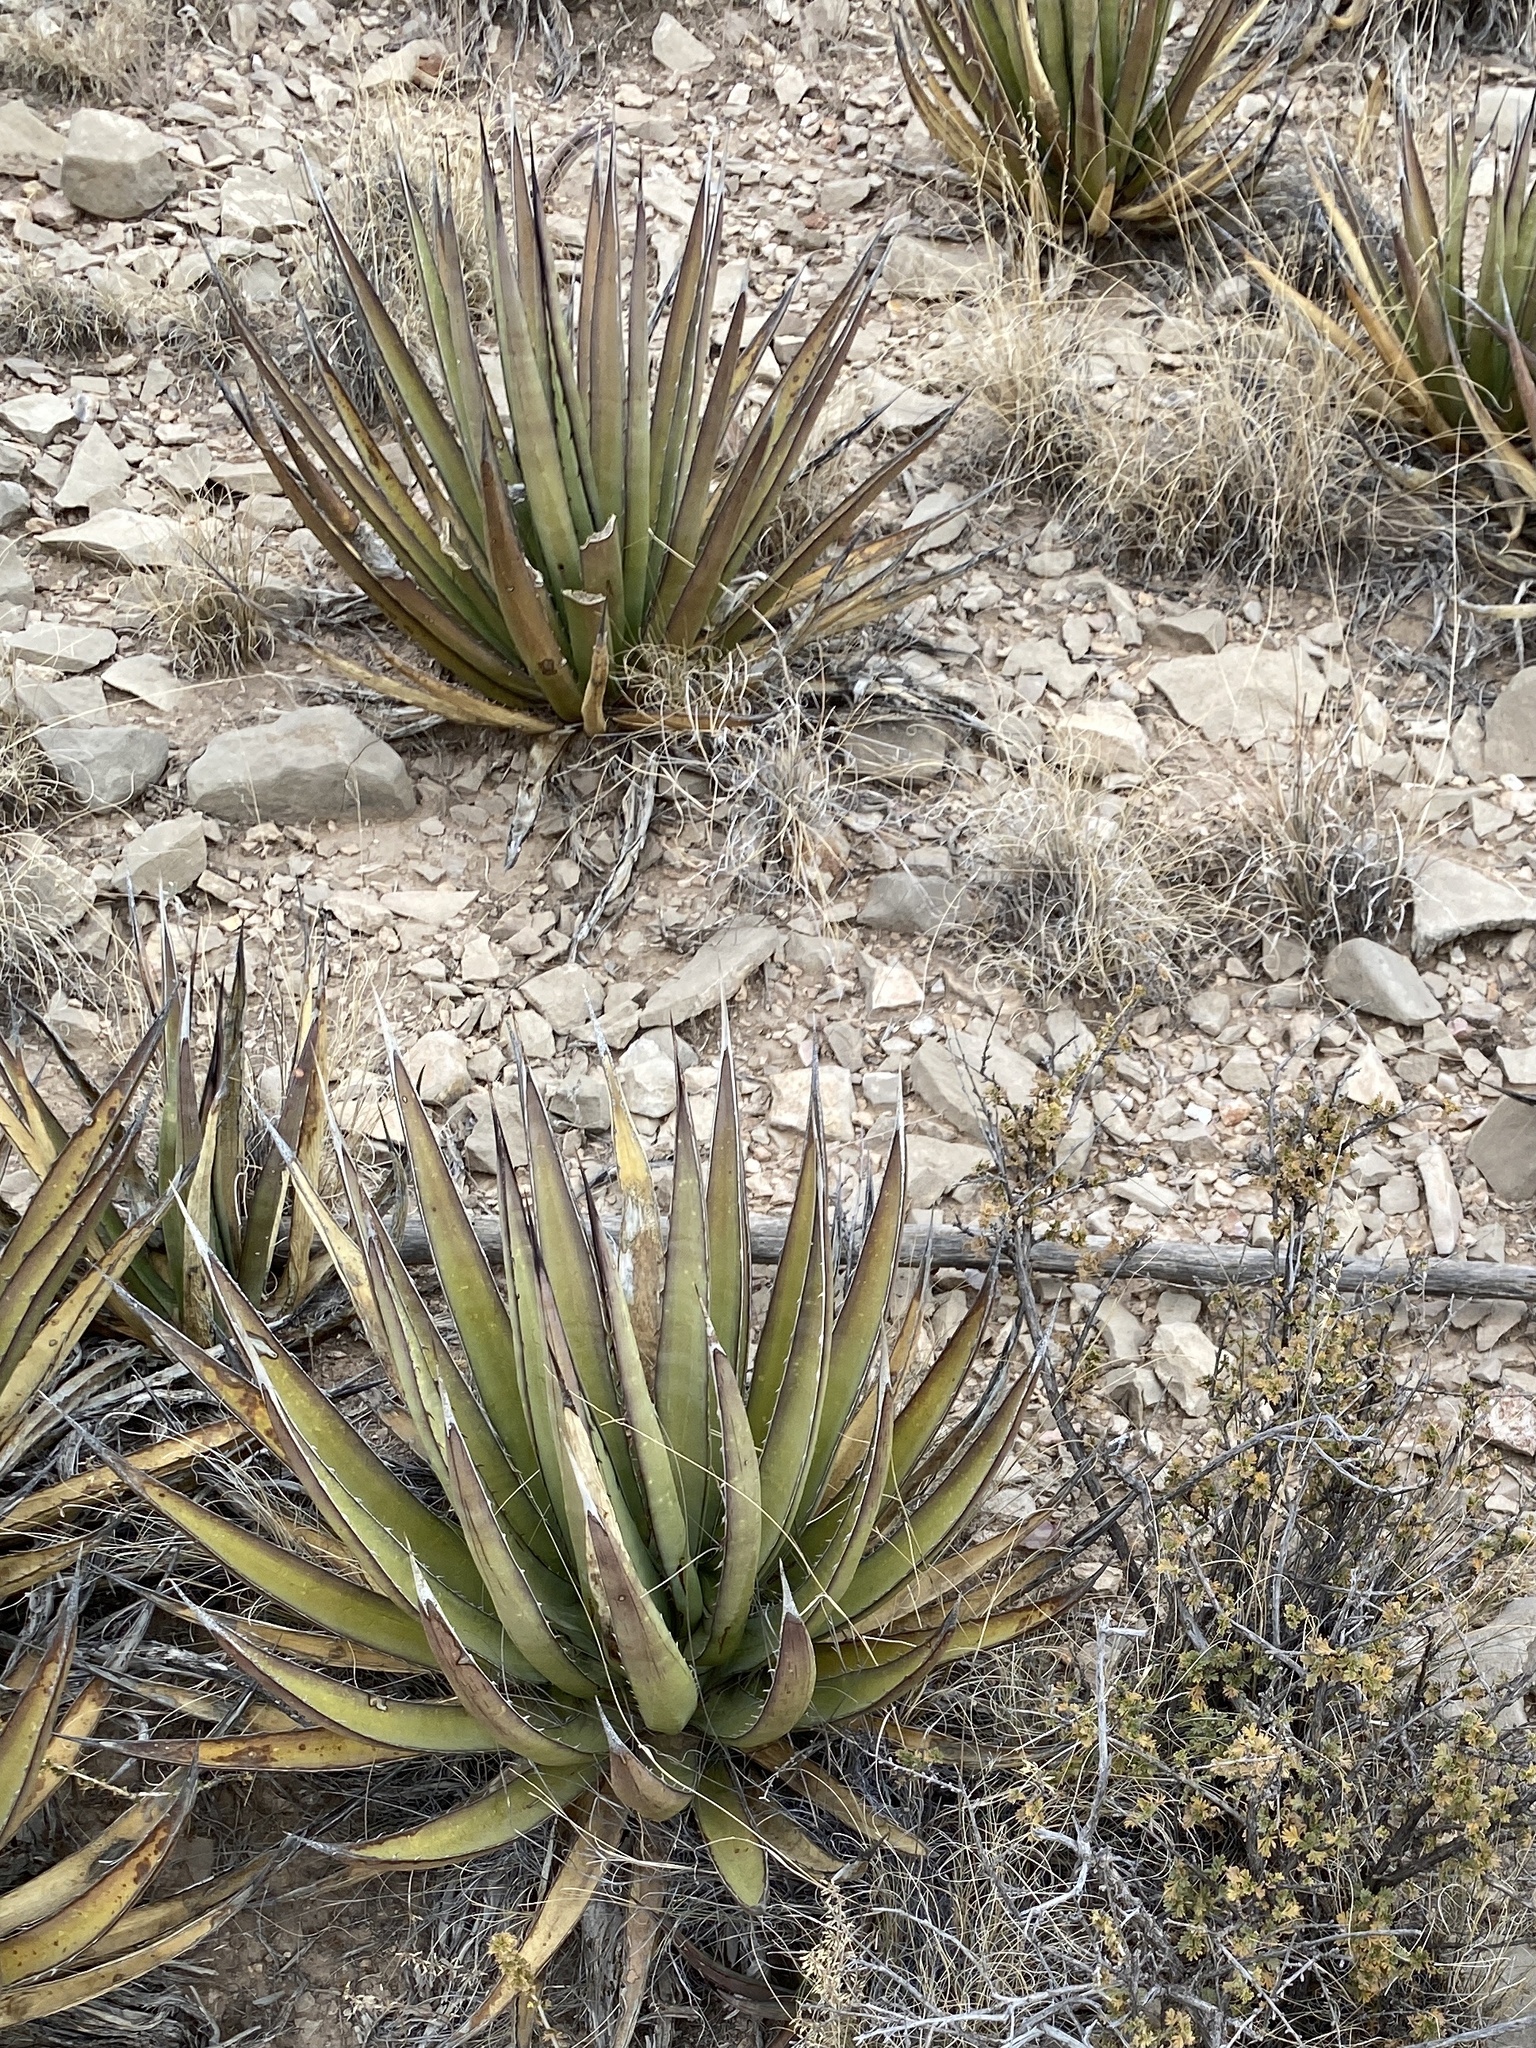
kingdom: Plantae
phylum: Tracheophyta
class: Liliopsida
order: Asparagales
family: Asparagaceae
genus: Agave
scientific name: Agave lechuguilla
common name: Lecheguilla agave
